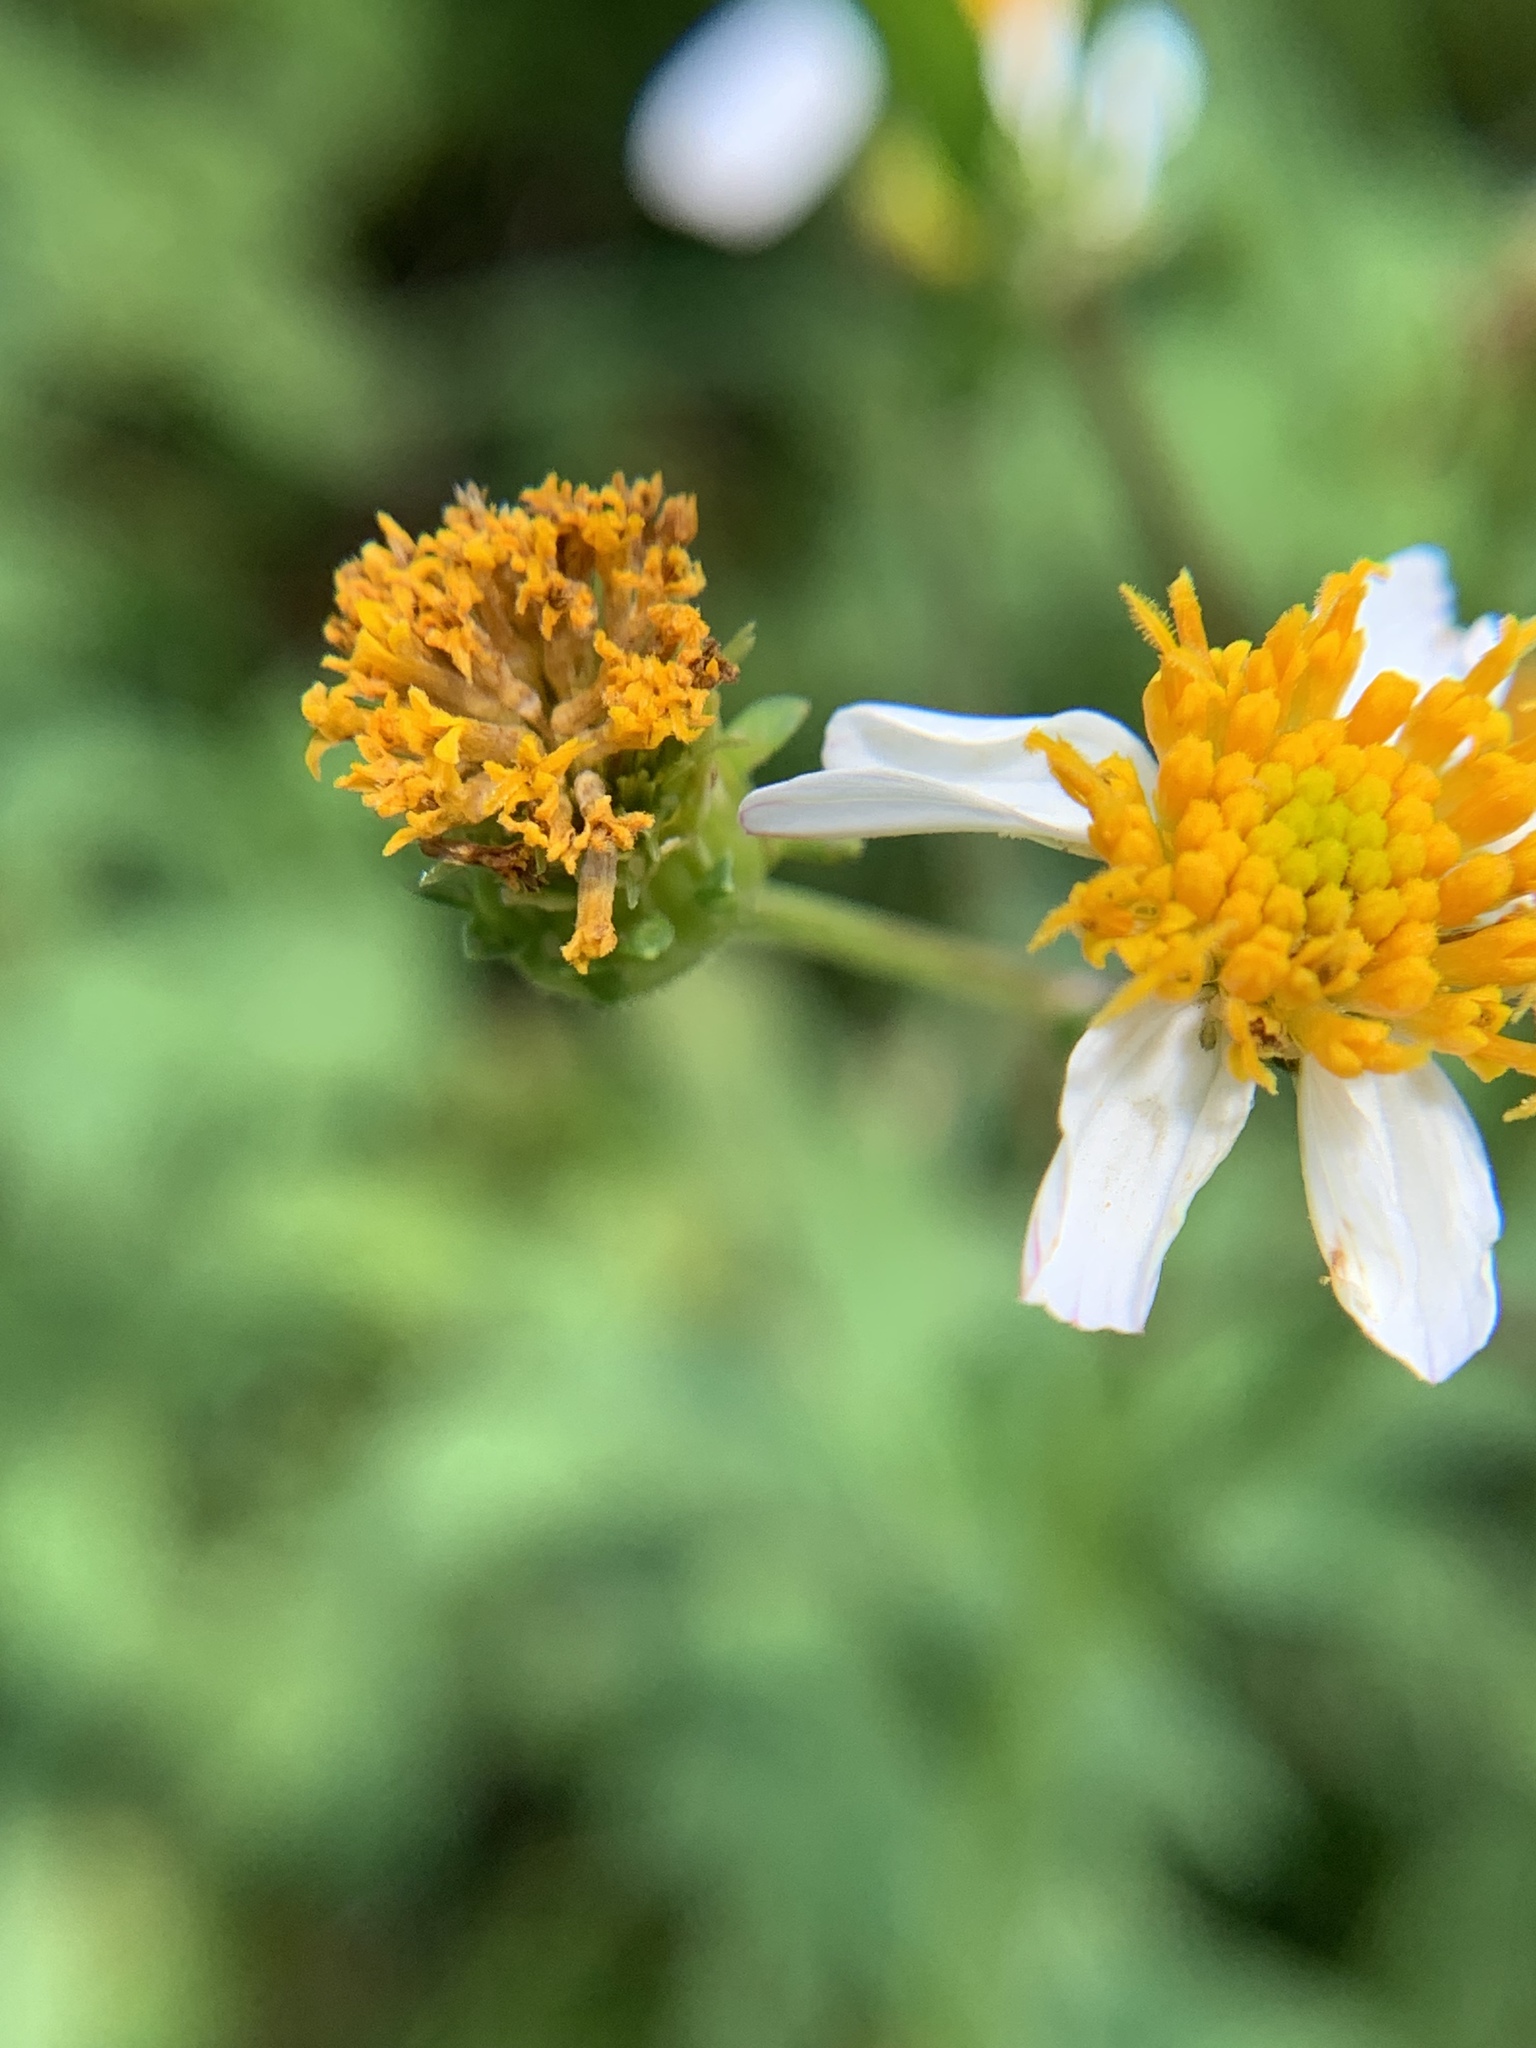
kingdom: Plantae
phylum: Tracheophyta
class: Magnoliopsida
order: Asterales
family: Asteraceae
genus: Bidens
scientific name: Bidens alba
